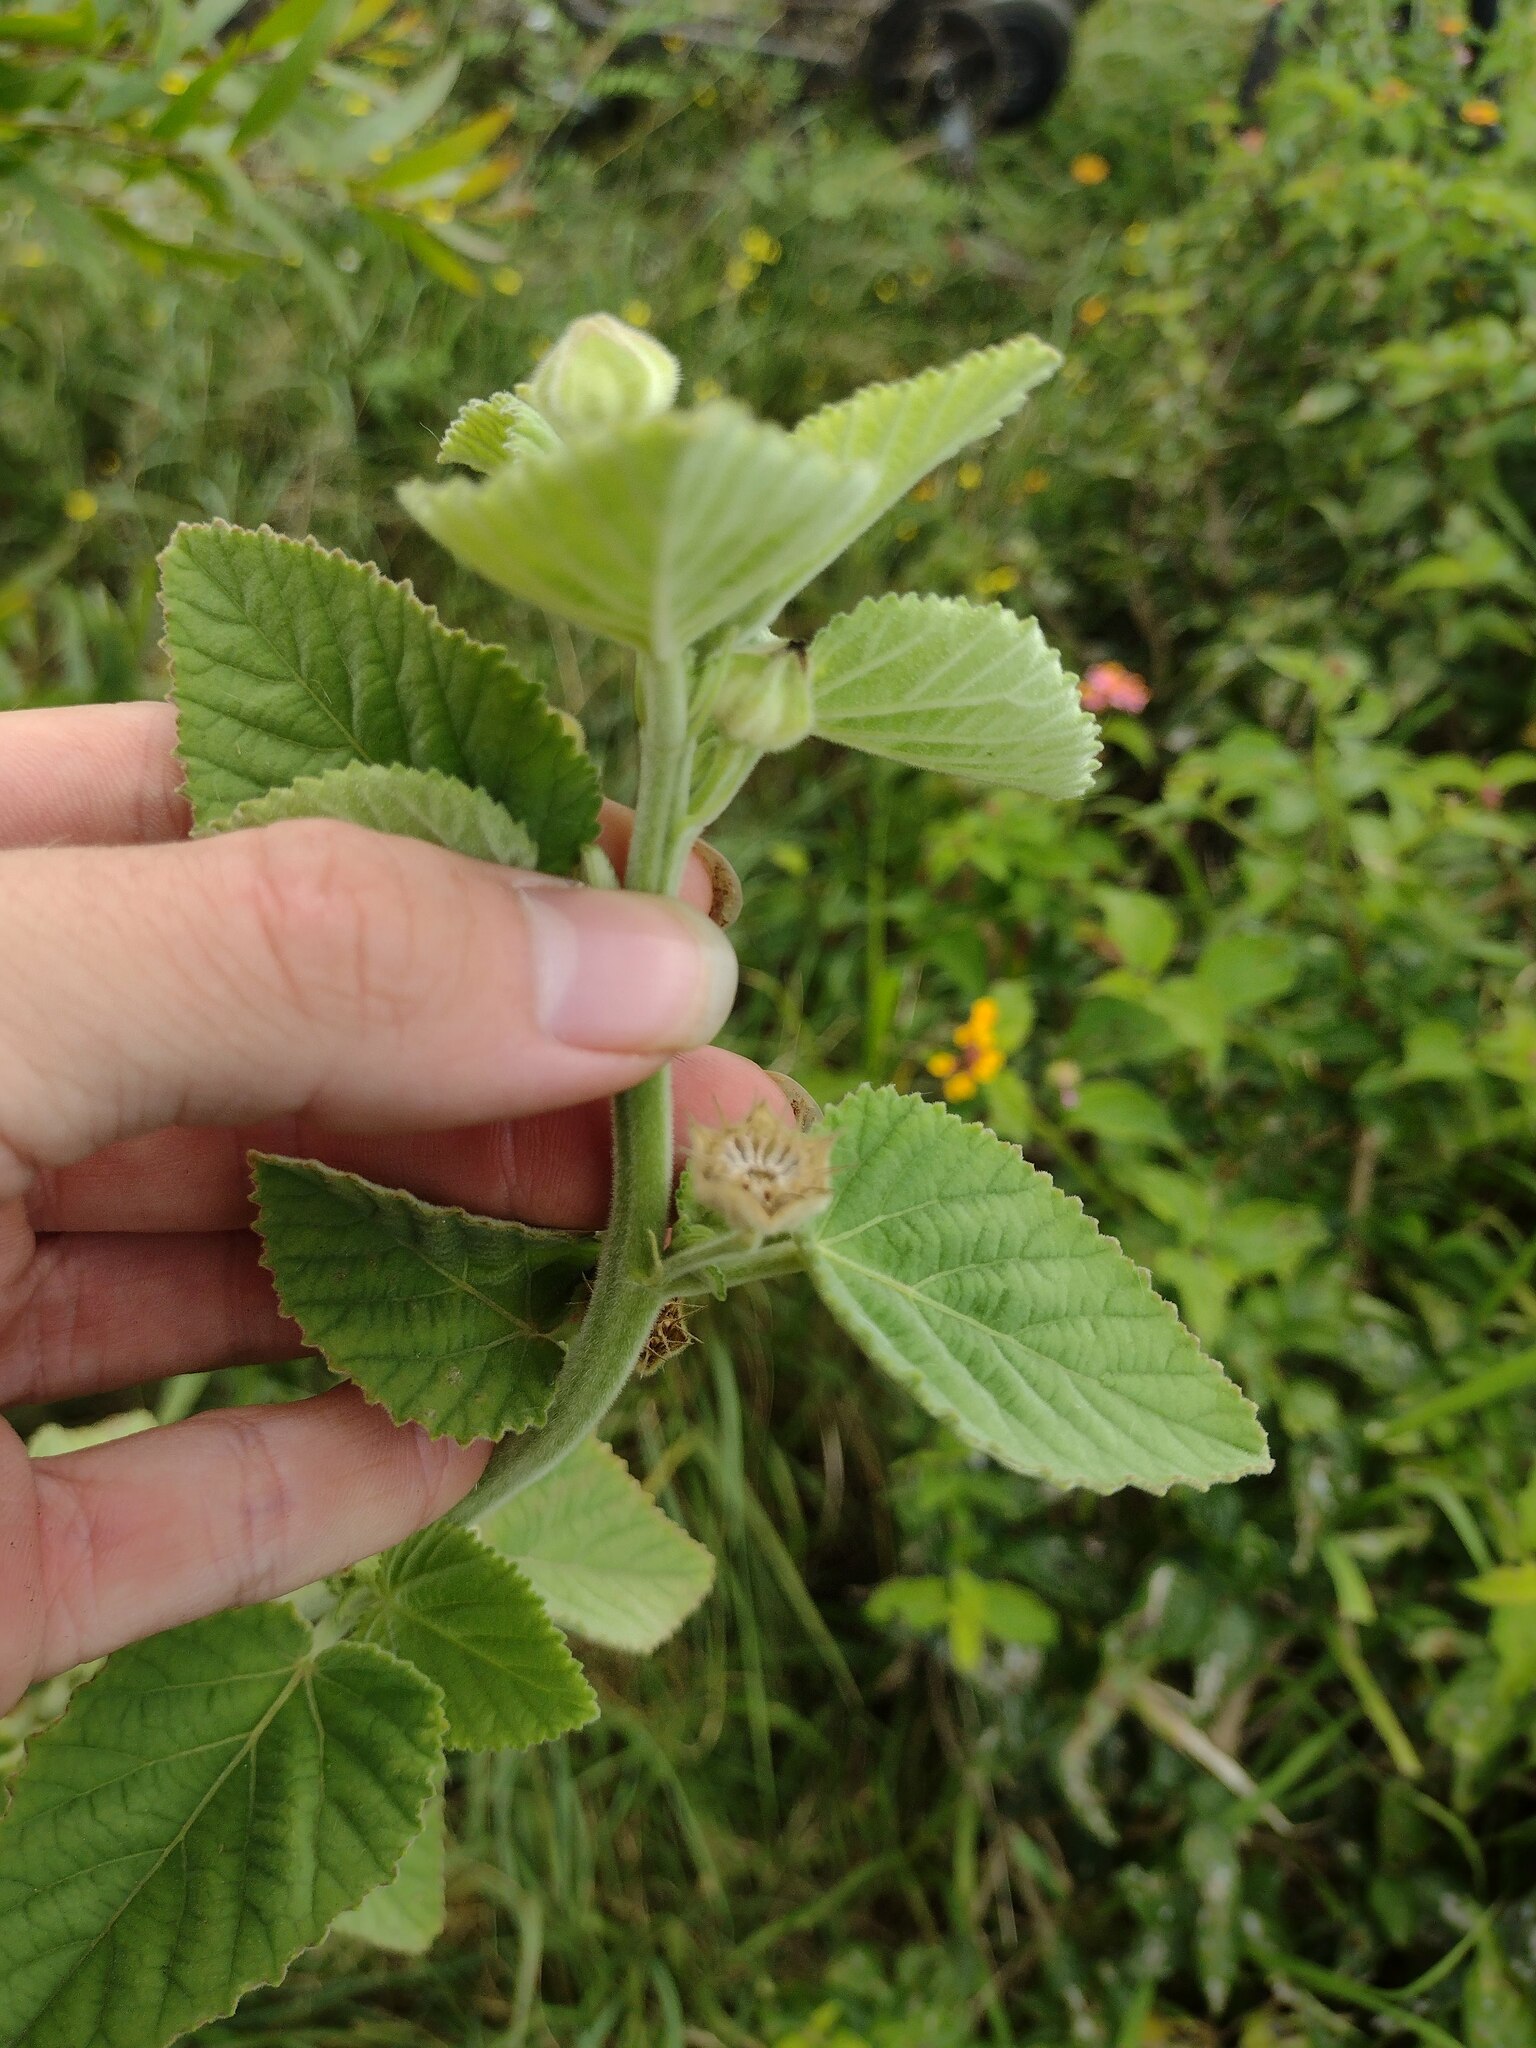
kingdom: Plantae
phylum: Tracheophyta
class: Magnoliopsida
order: Malvales
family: Malvaceae
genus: Sida
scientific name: Sida cordifolia
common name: Ilima
